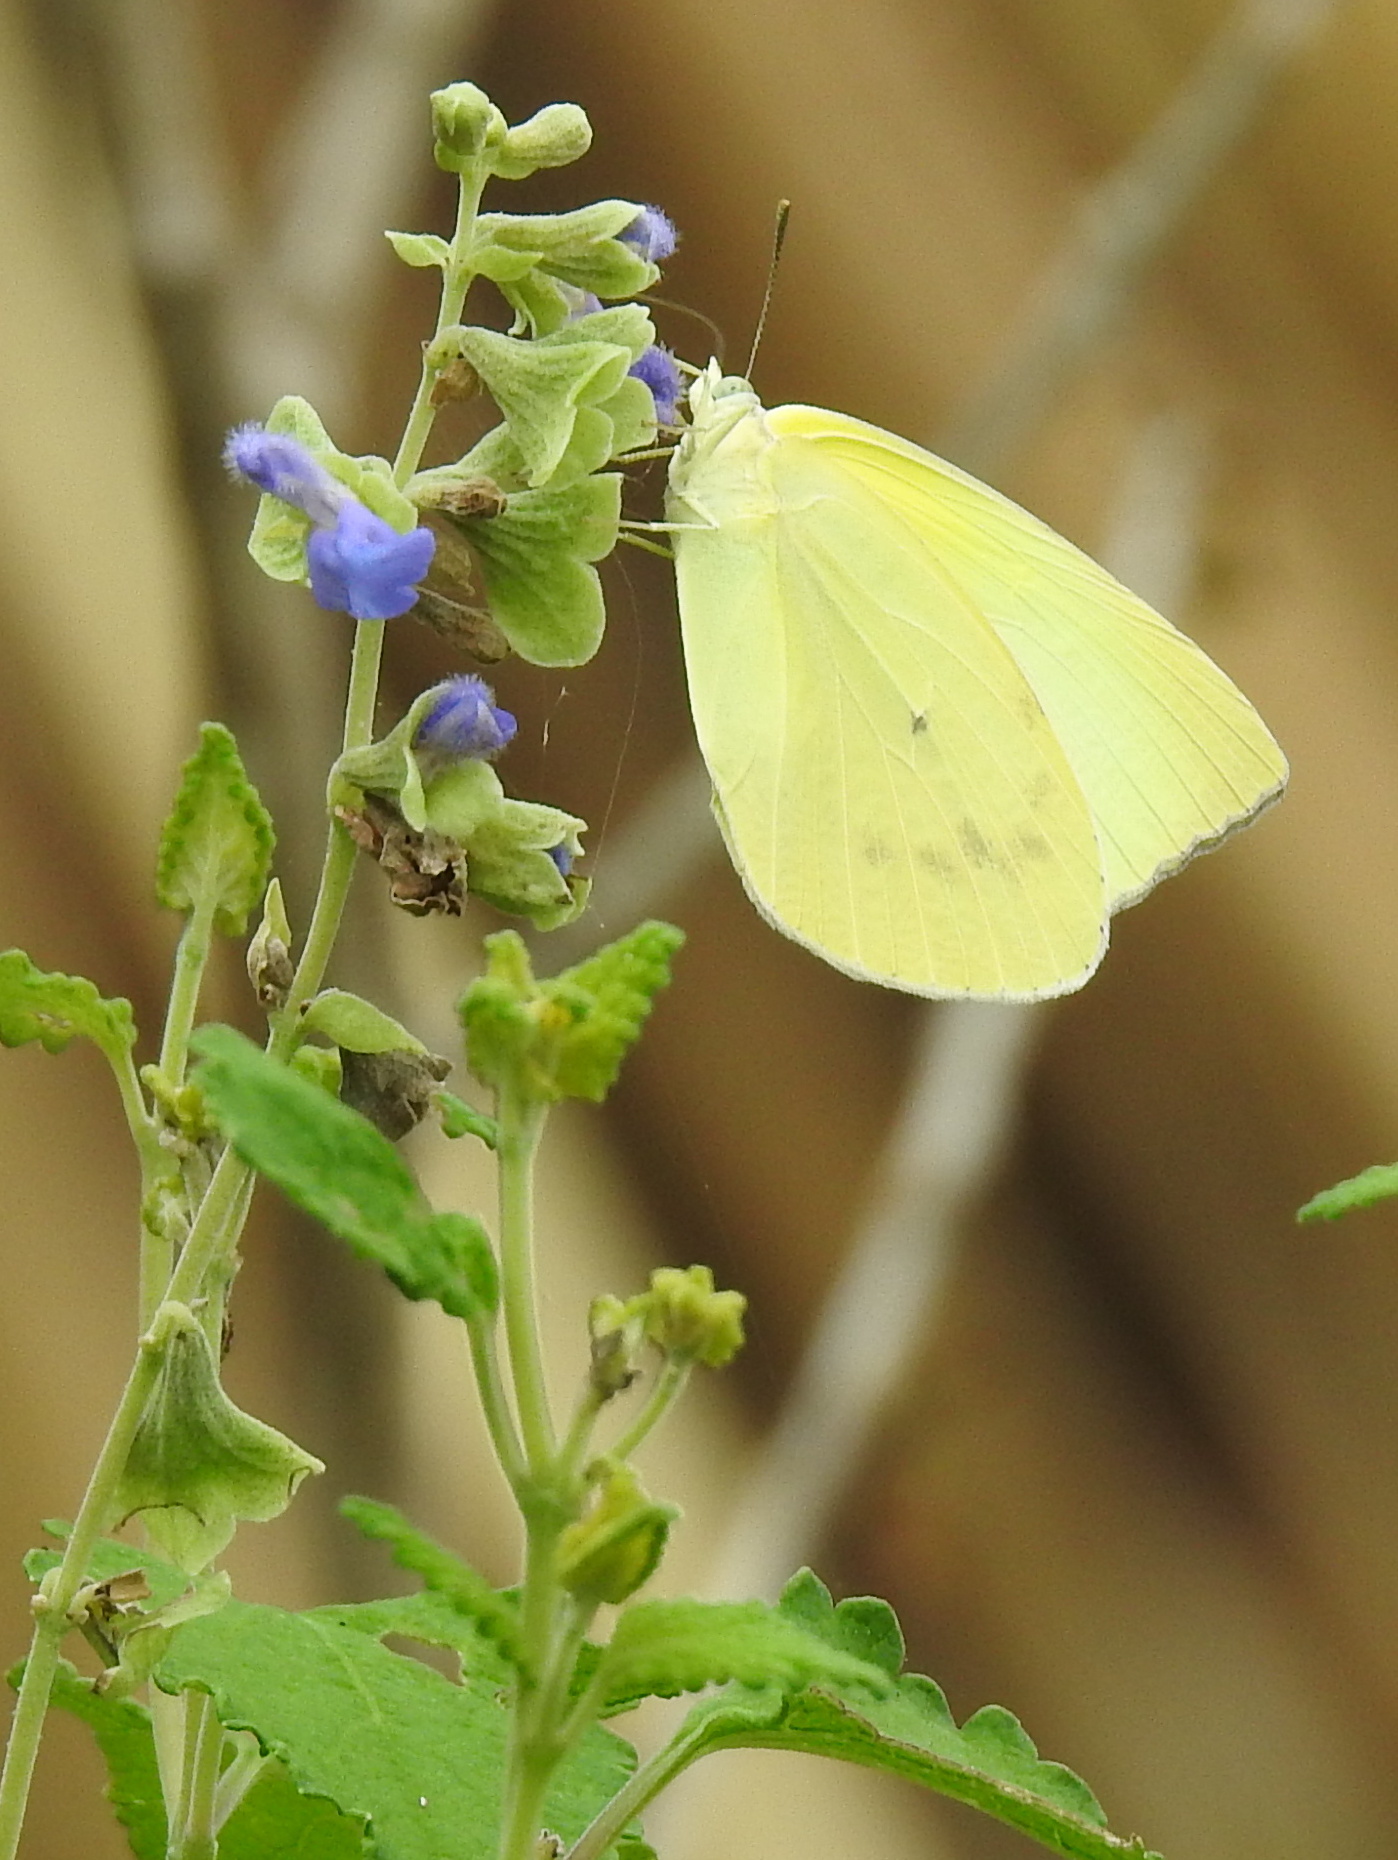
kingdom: Animalia
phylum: Arthropoda
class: Insecta
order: Lepidoptera
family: Pieridae
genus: Kricogonia
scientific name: Kricogonia lyside
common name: Guayacan sulphur,
